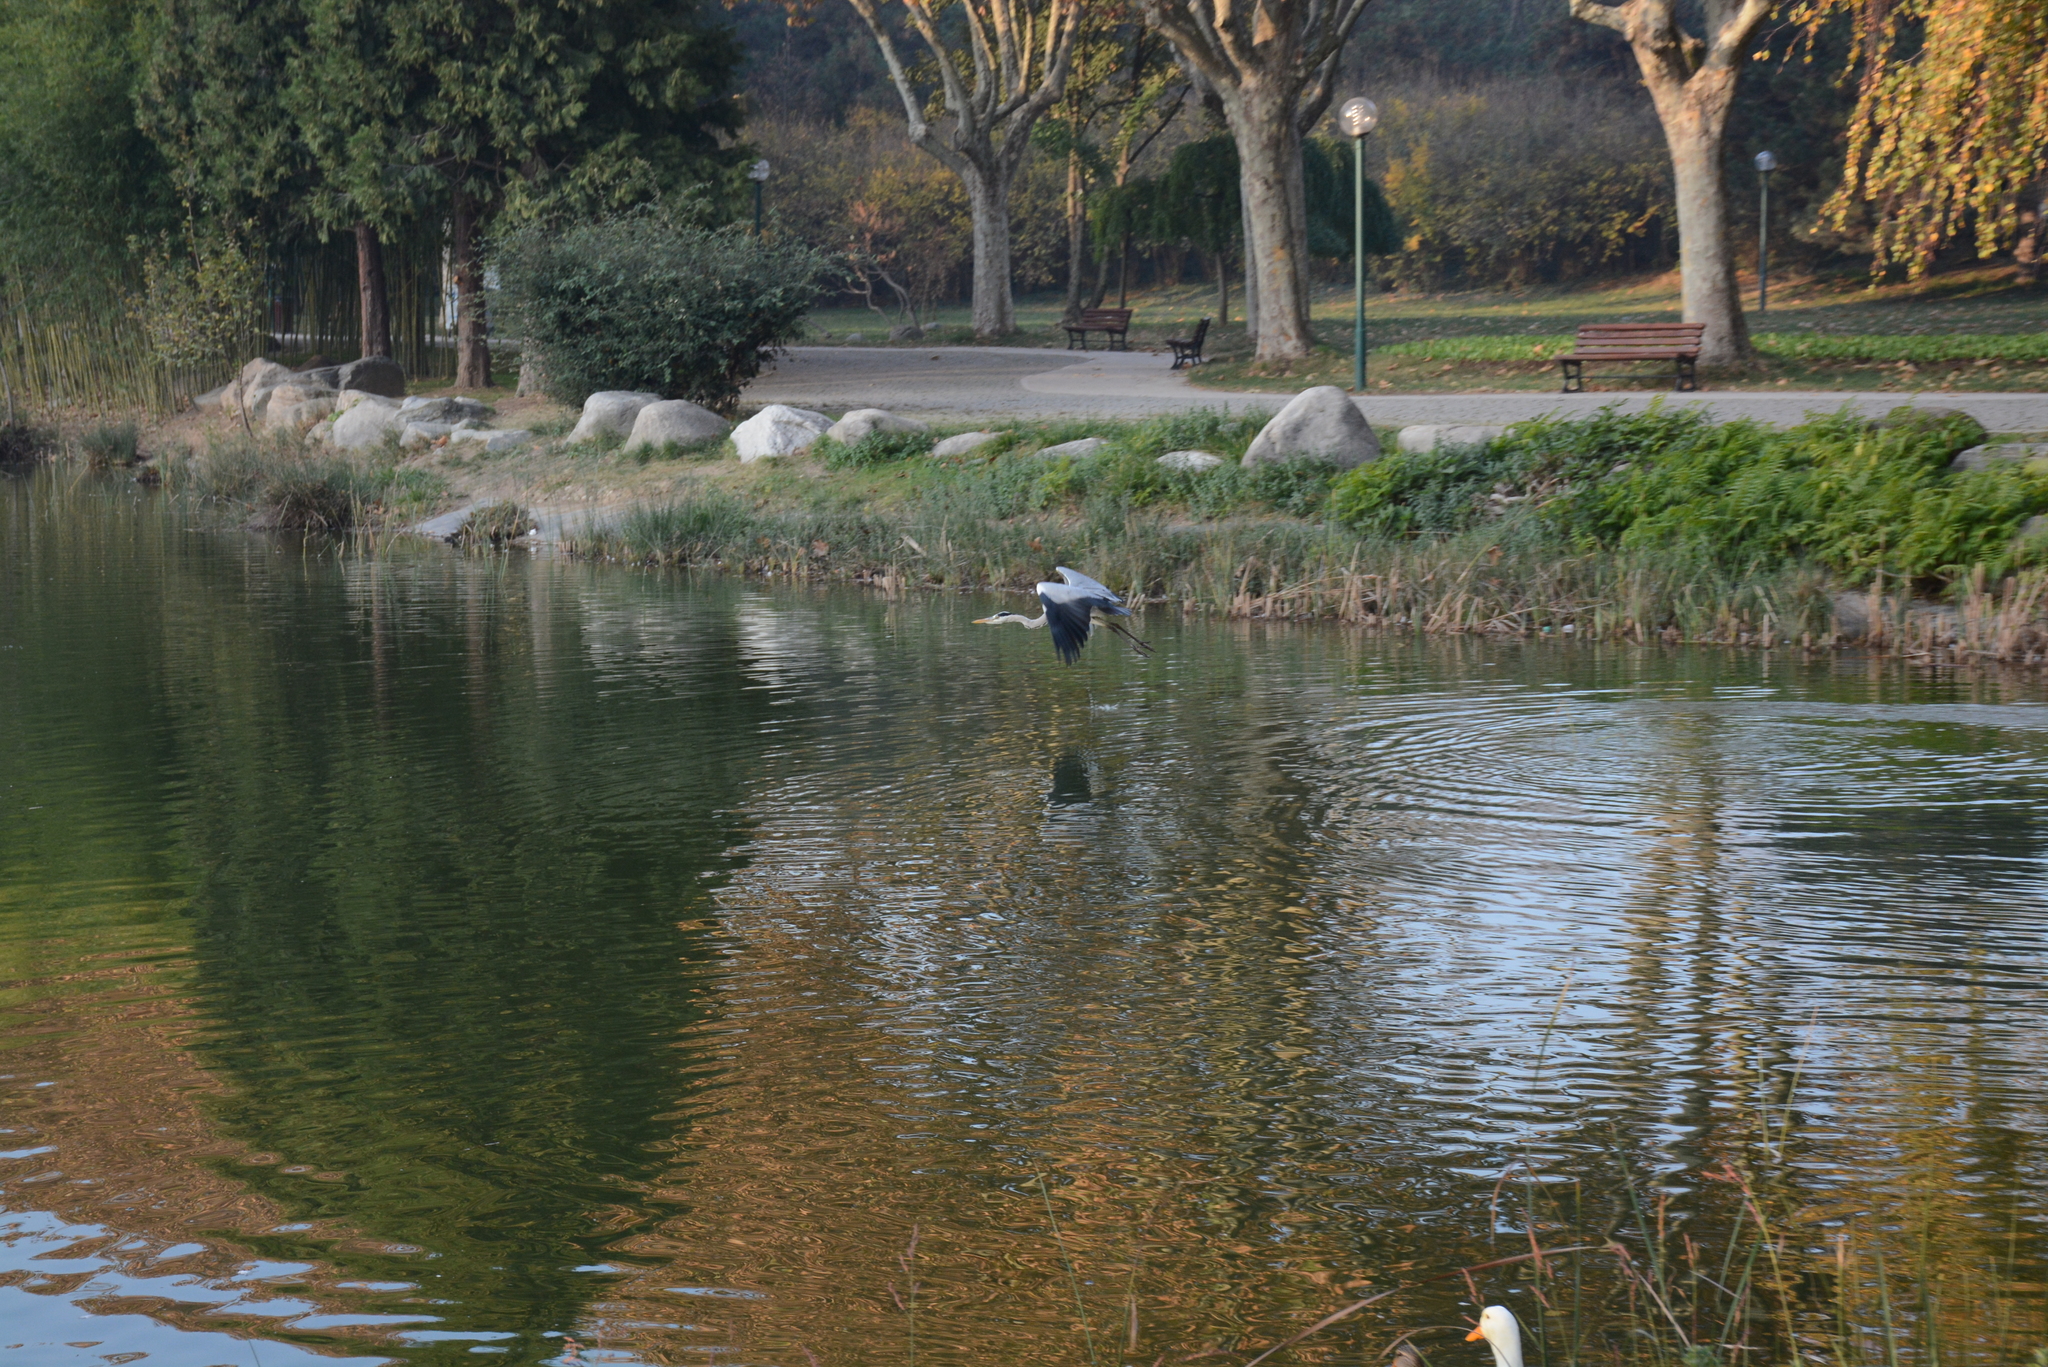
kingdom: Animalia
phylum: Chordata
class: Aves
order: Pelecaniformes
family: Ardeidae
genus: Ardea
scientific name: Ardea cinerea
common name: Grey heron
